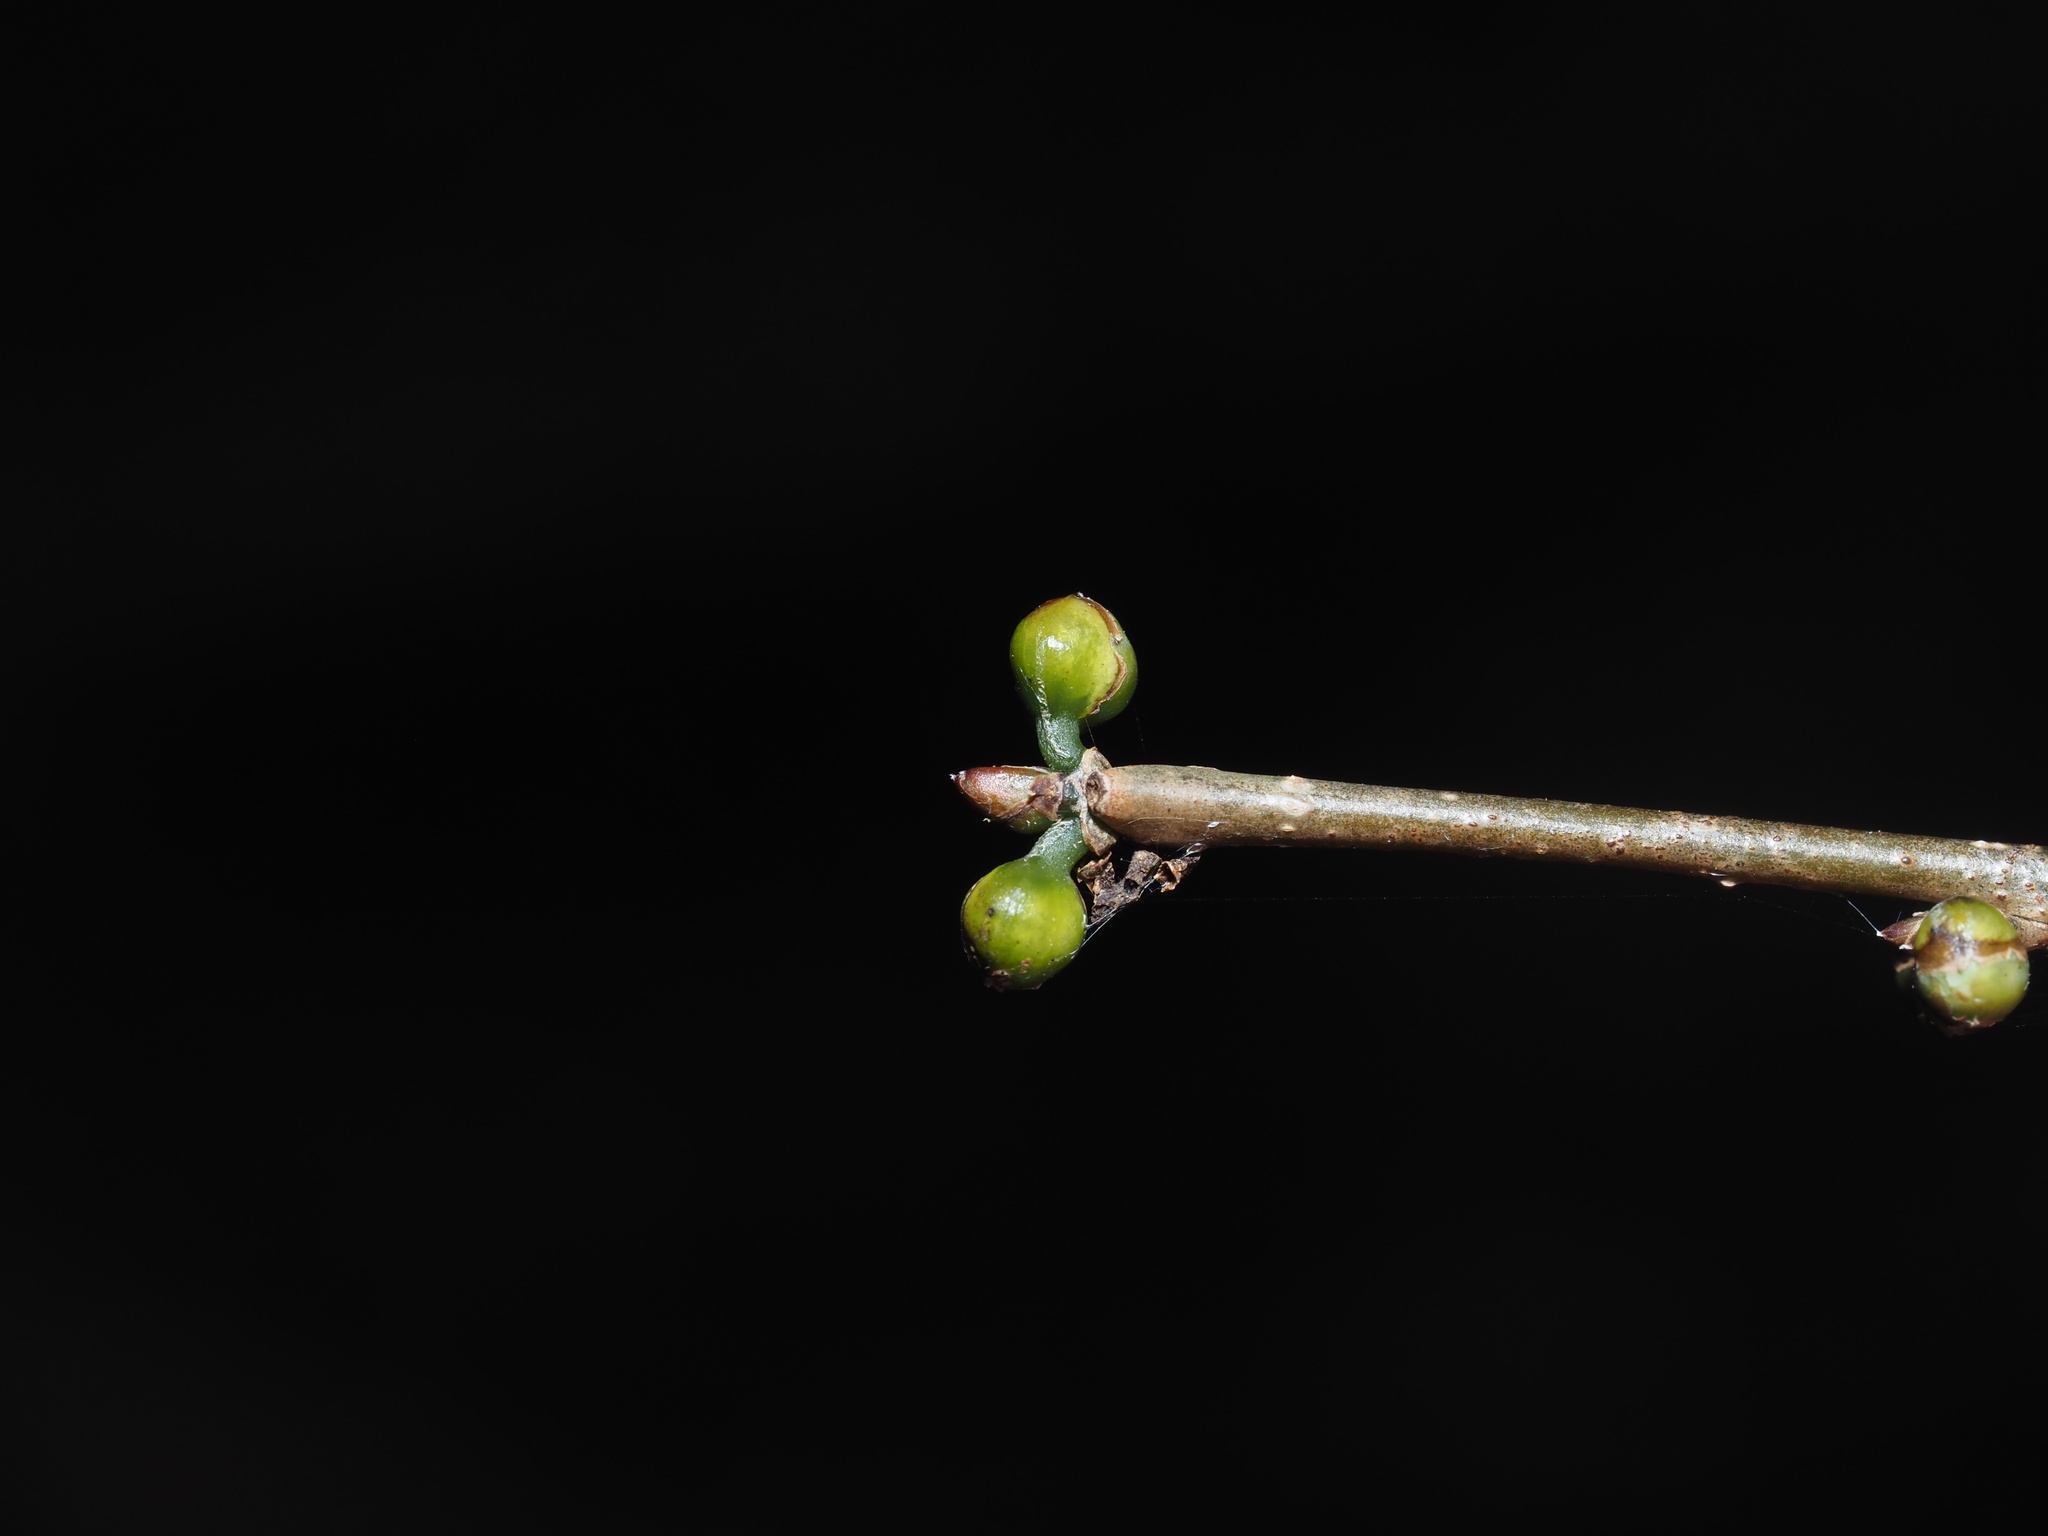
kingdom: Plantae
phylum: Tracheophyta
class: Magnoliopsida
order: Laurales
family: Lauraceae
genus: Lindera
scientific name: Lindera benzoin
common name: Spicebush
